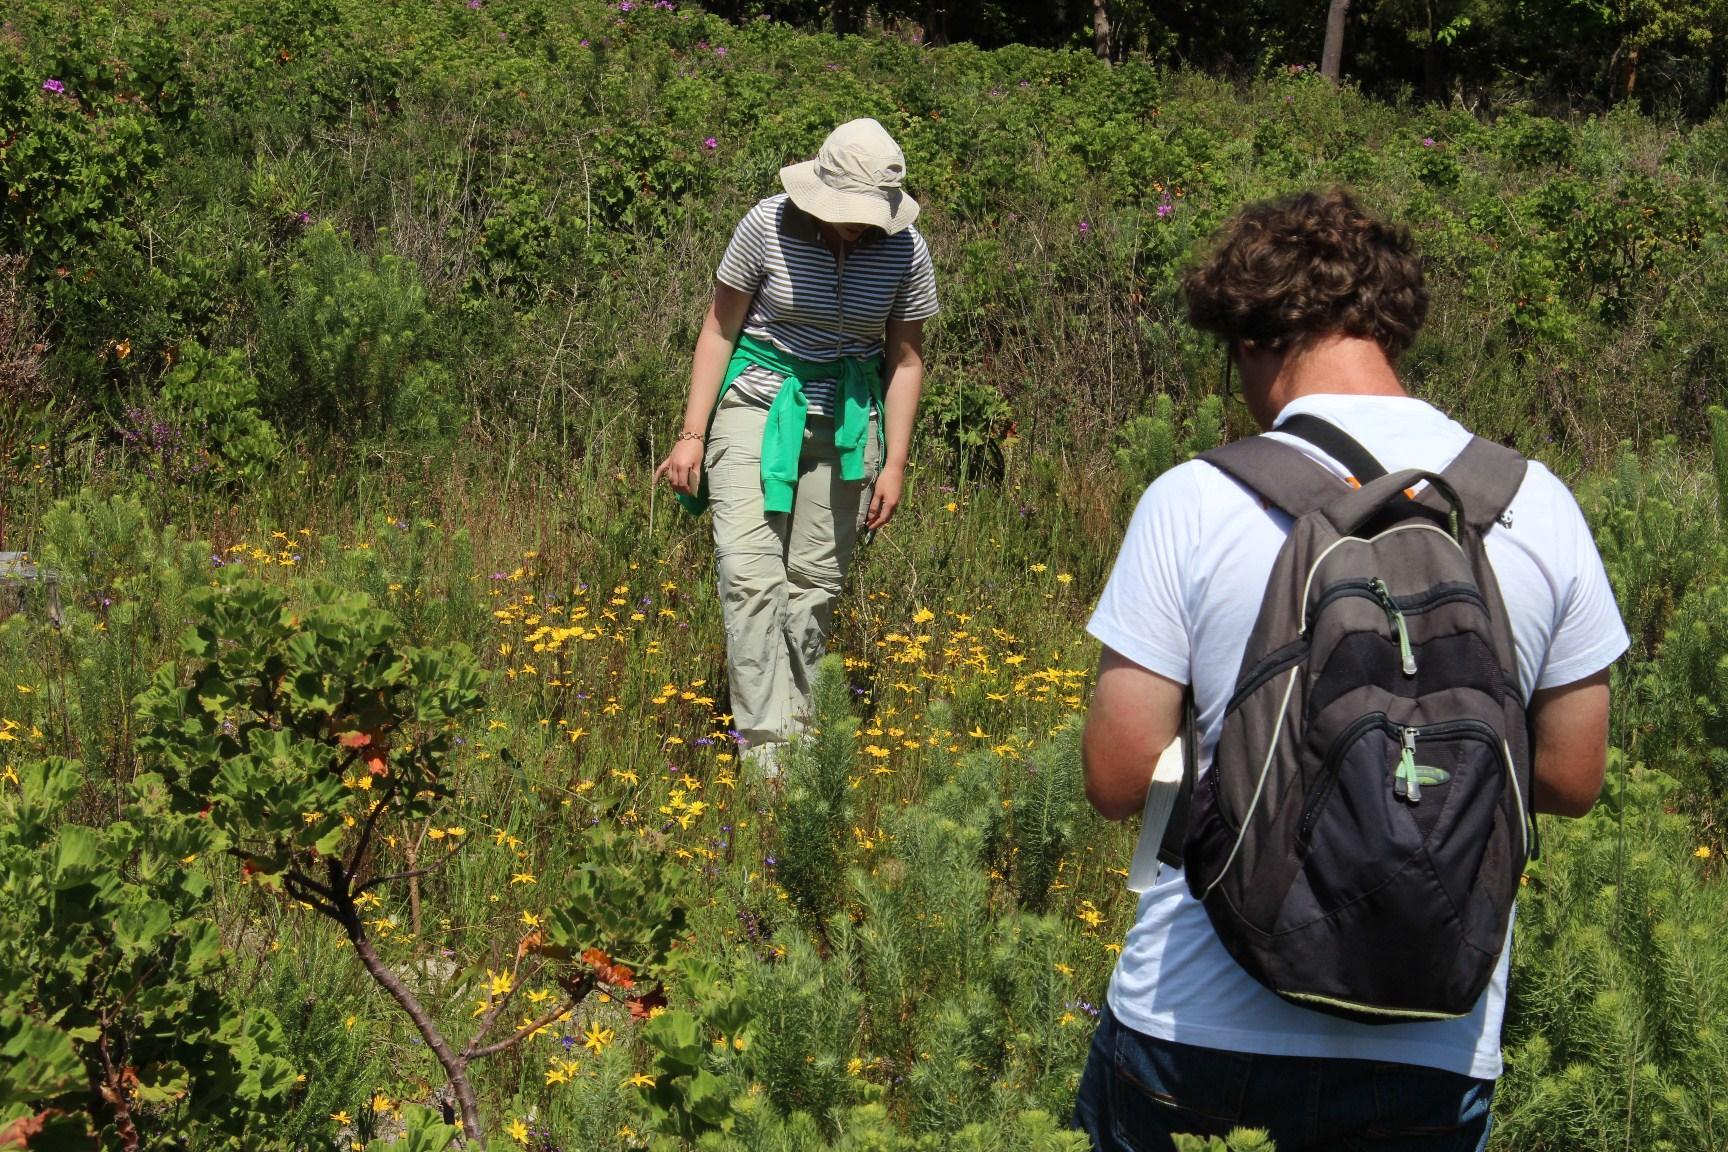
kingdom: Plantae
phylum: Tracheophyta
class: Liliopsida
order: Asparagales
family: Hypoxidaceae
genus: Pauridia
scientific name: Pauridia capensis
